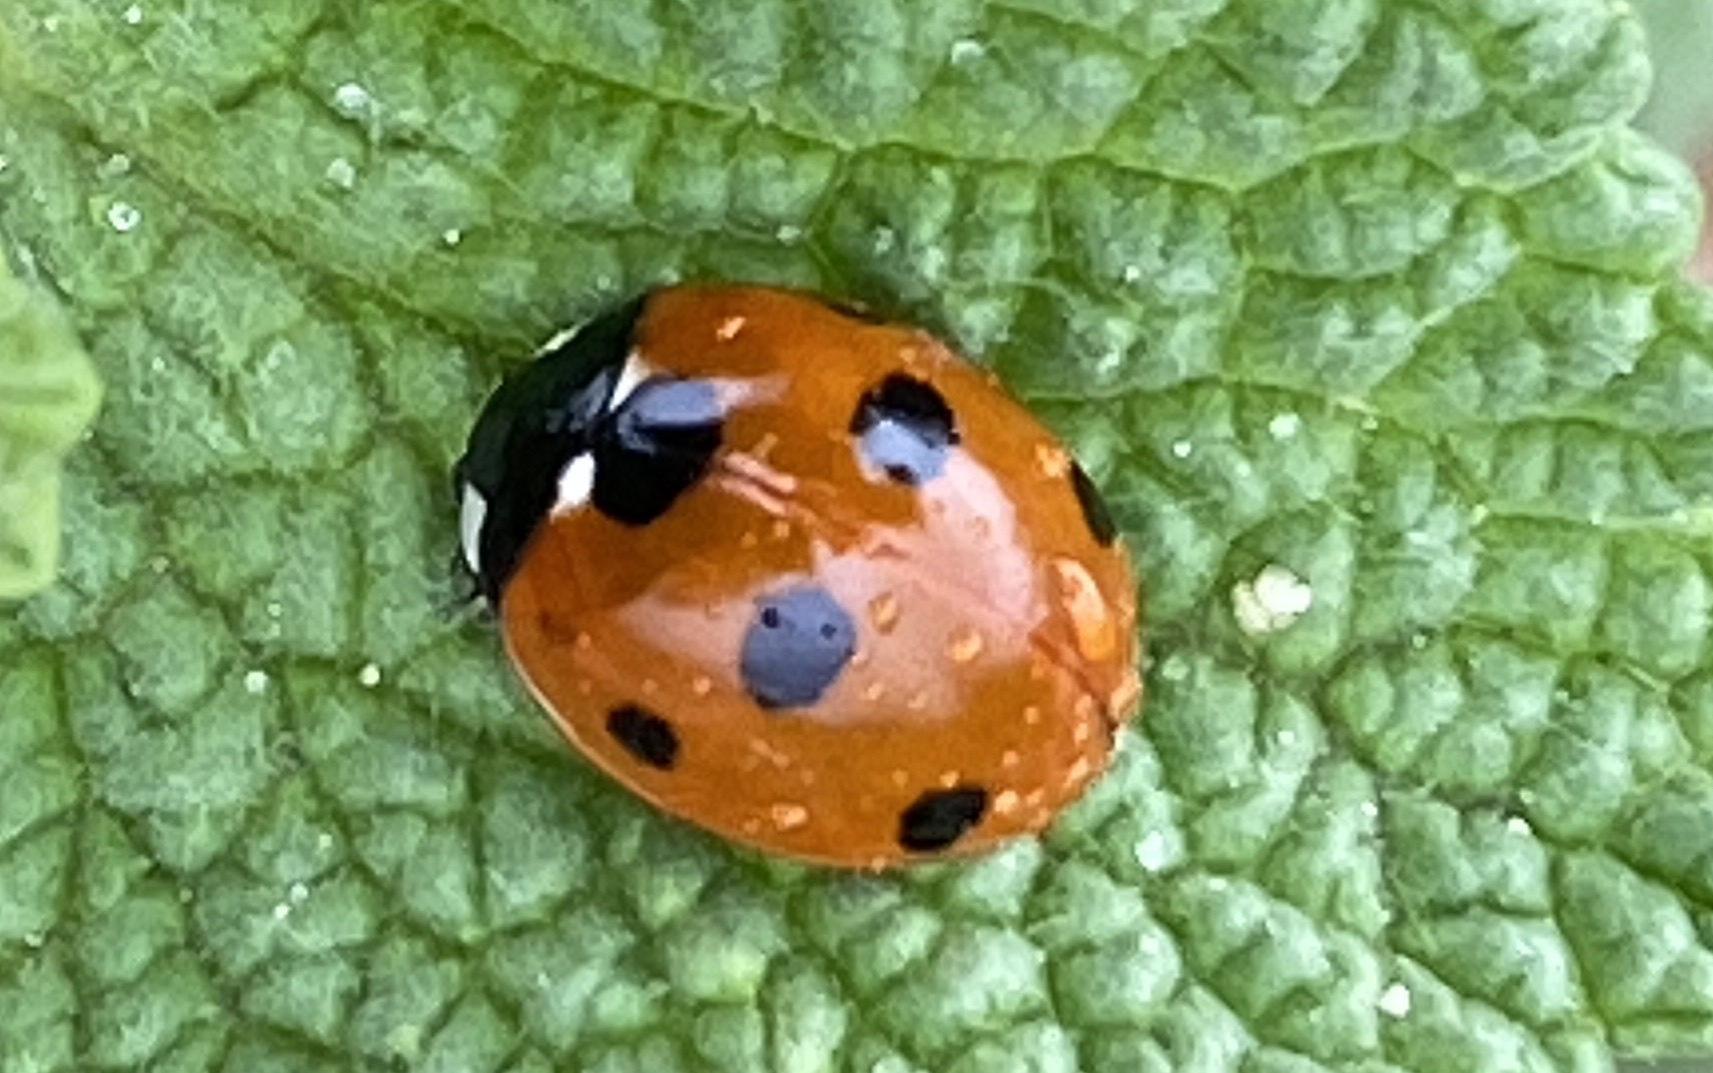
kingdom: Animalia
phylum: Arthropoda
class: Insecta
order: Coleoptera
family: Coccinellidae
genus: Coccinella
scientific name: Coccinella septempunctata
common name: Sevenspotted lady beetle
